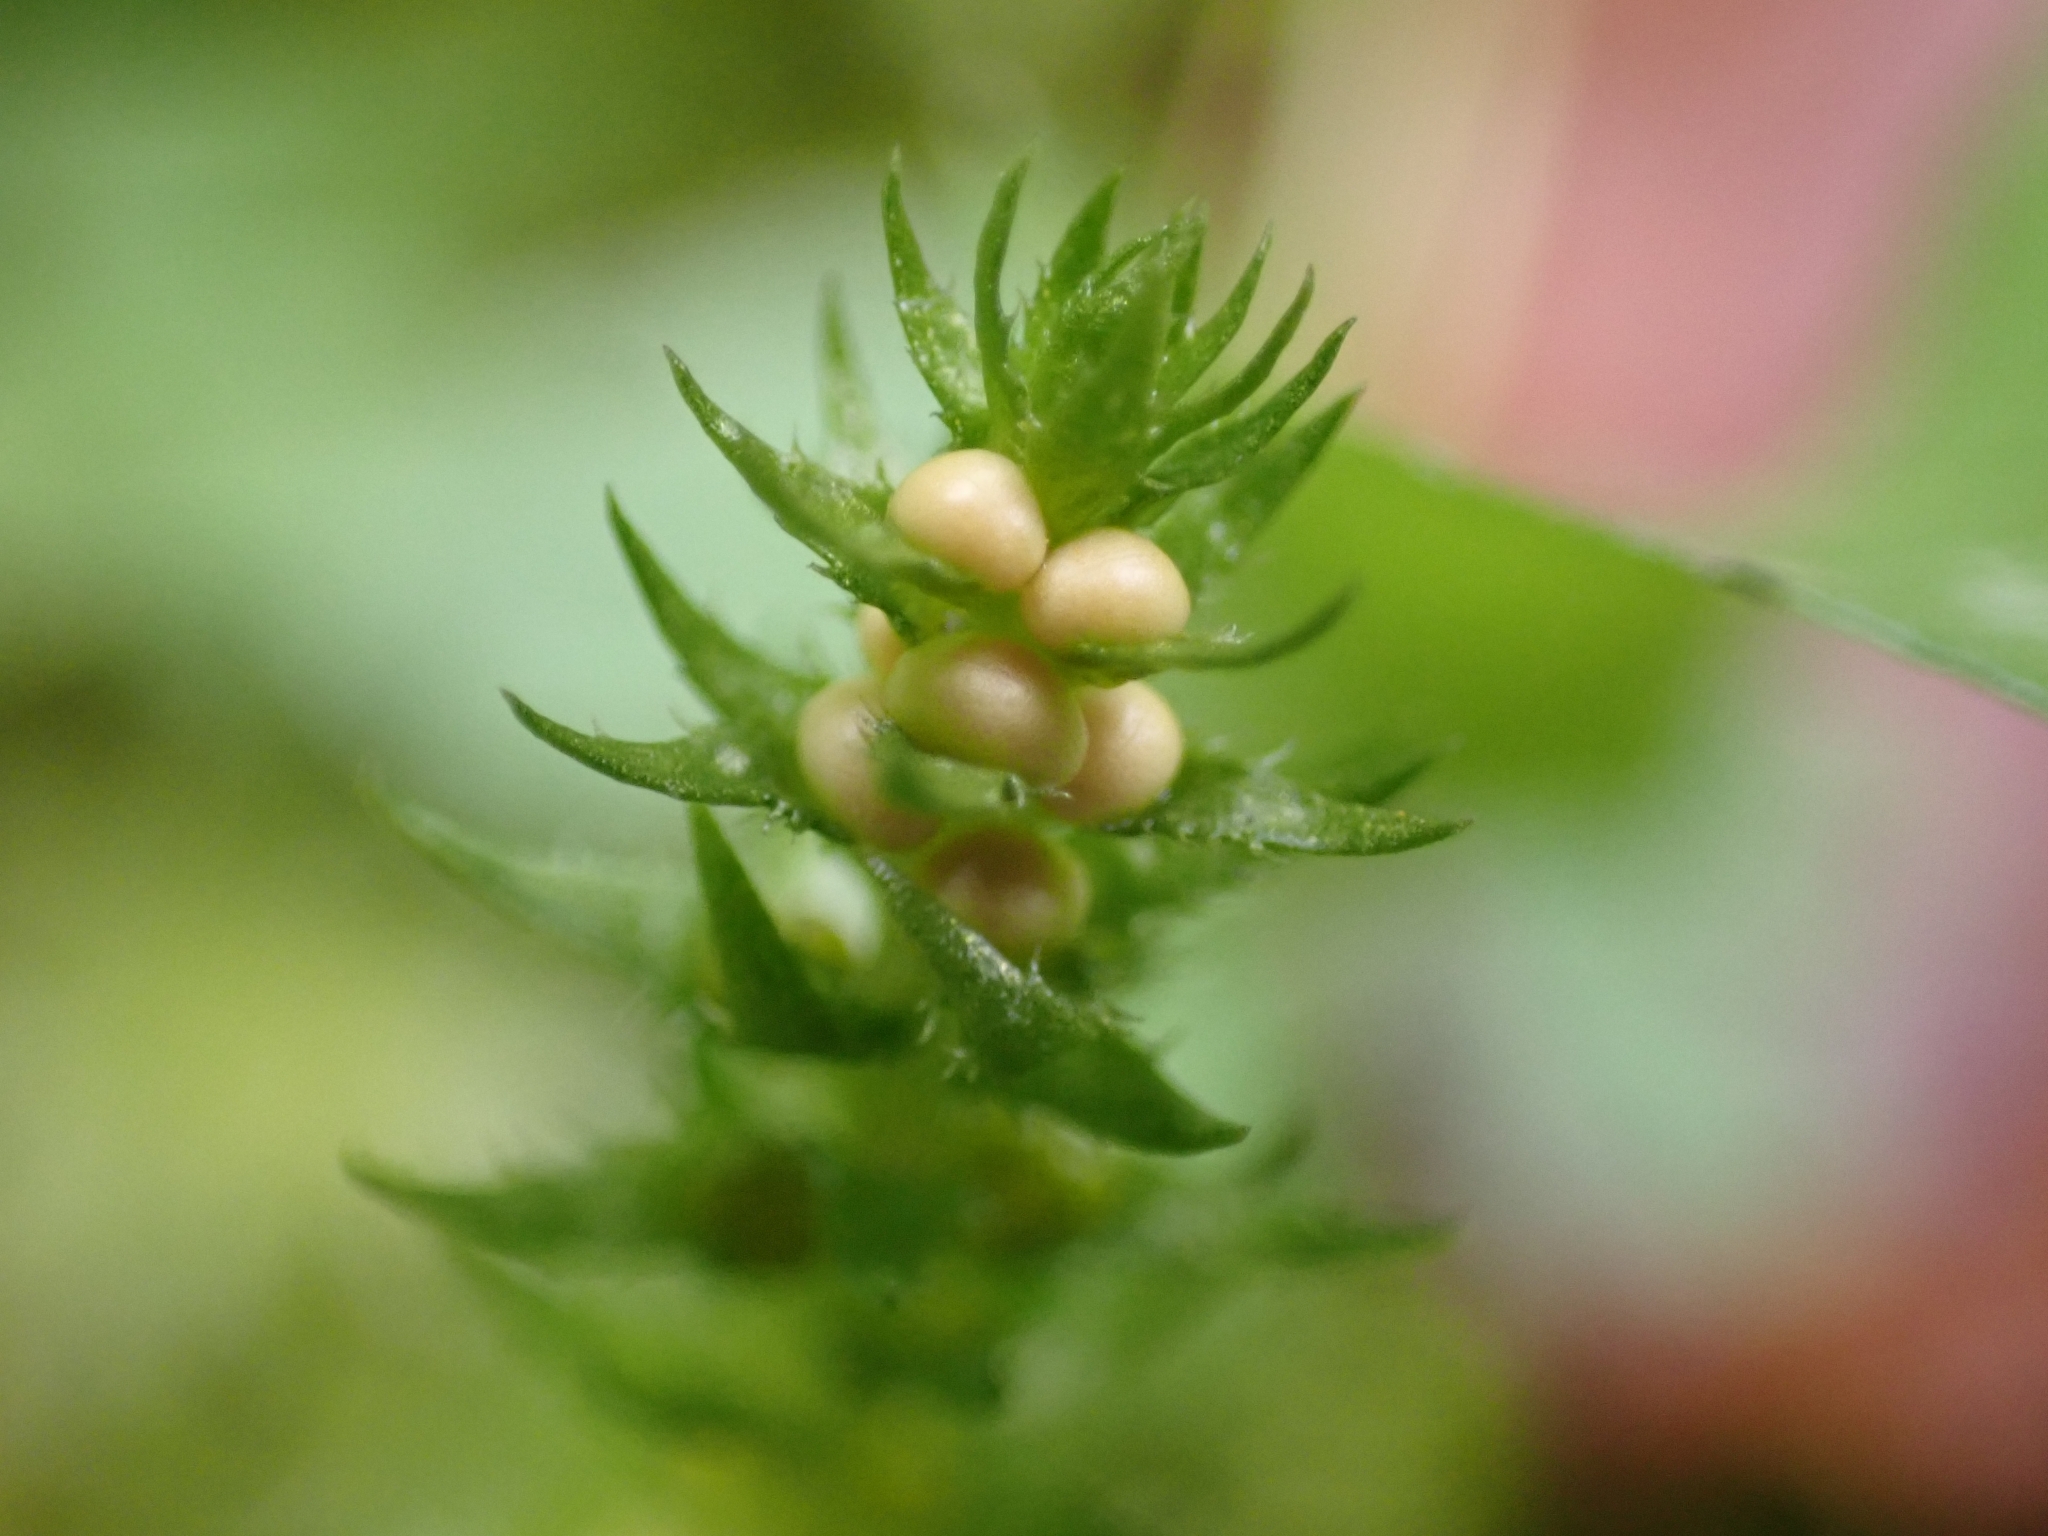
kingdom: Plantae
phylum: Tracheophyta
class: Lycopodiopsida
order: Selaginellales
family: Selaginellaceae
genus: Selaginella
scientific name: Selaginella selaginoides
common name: Prickly mountain-moss
